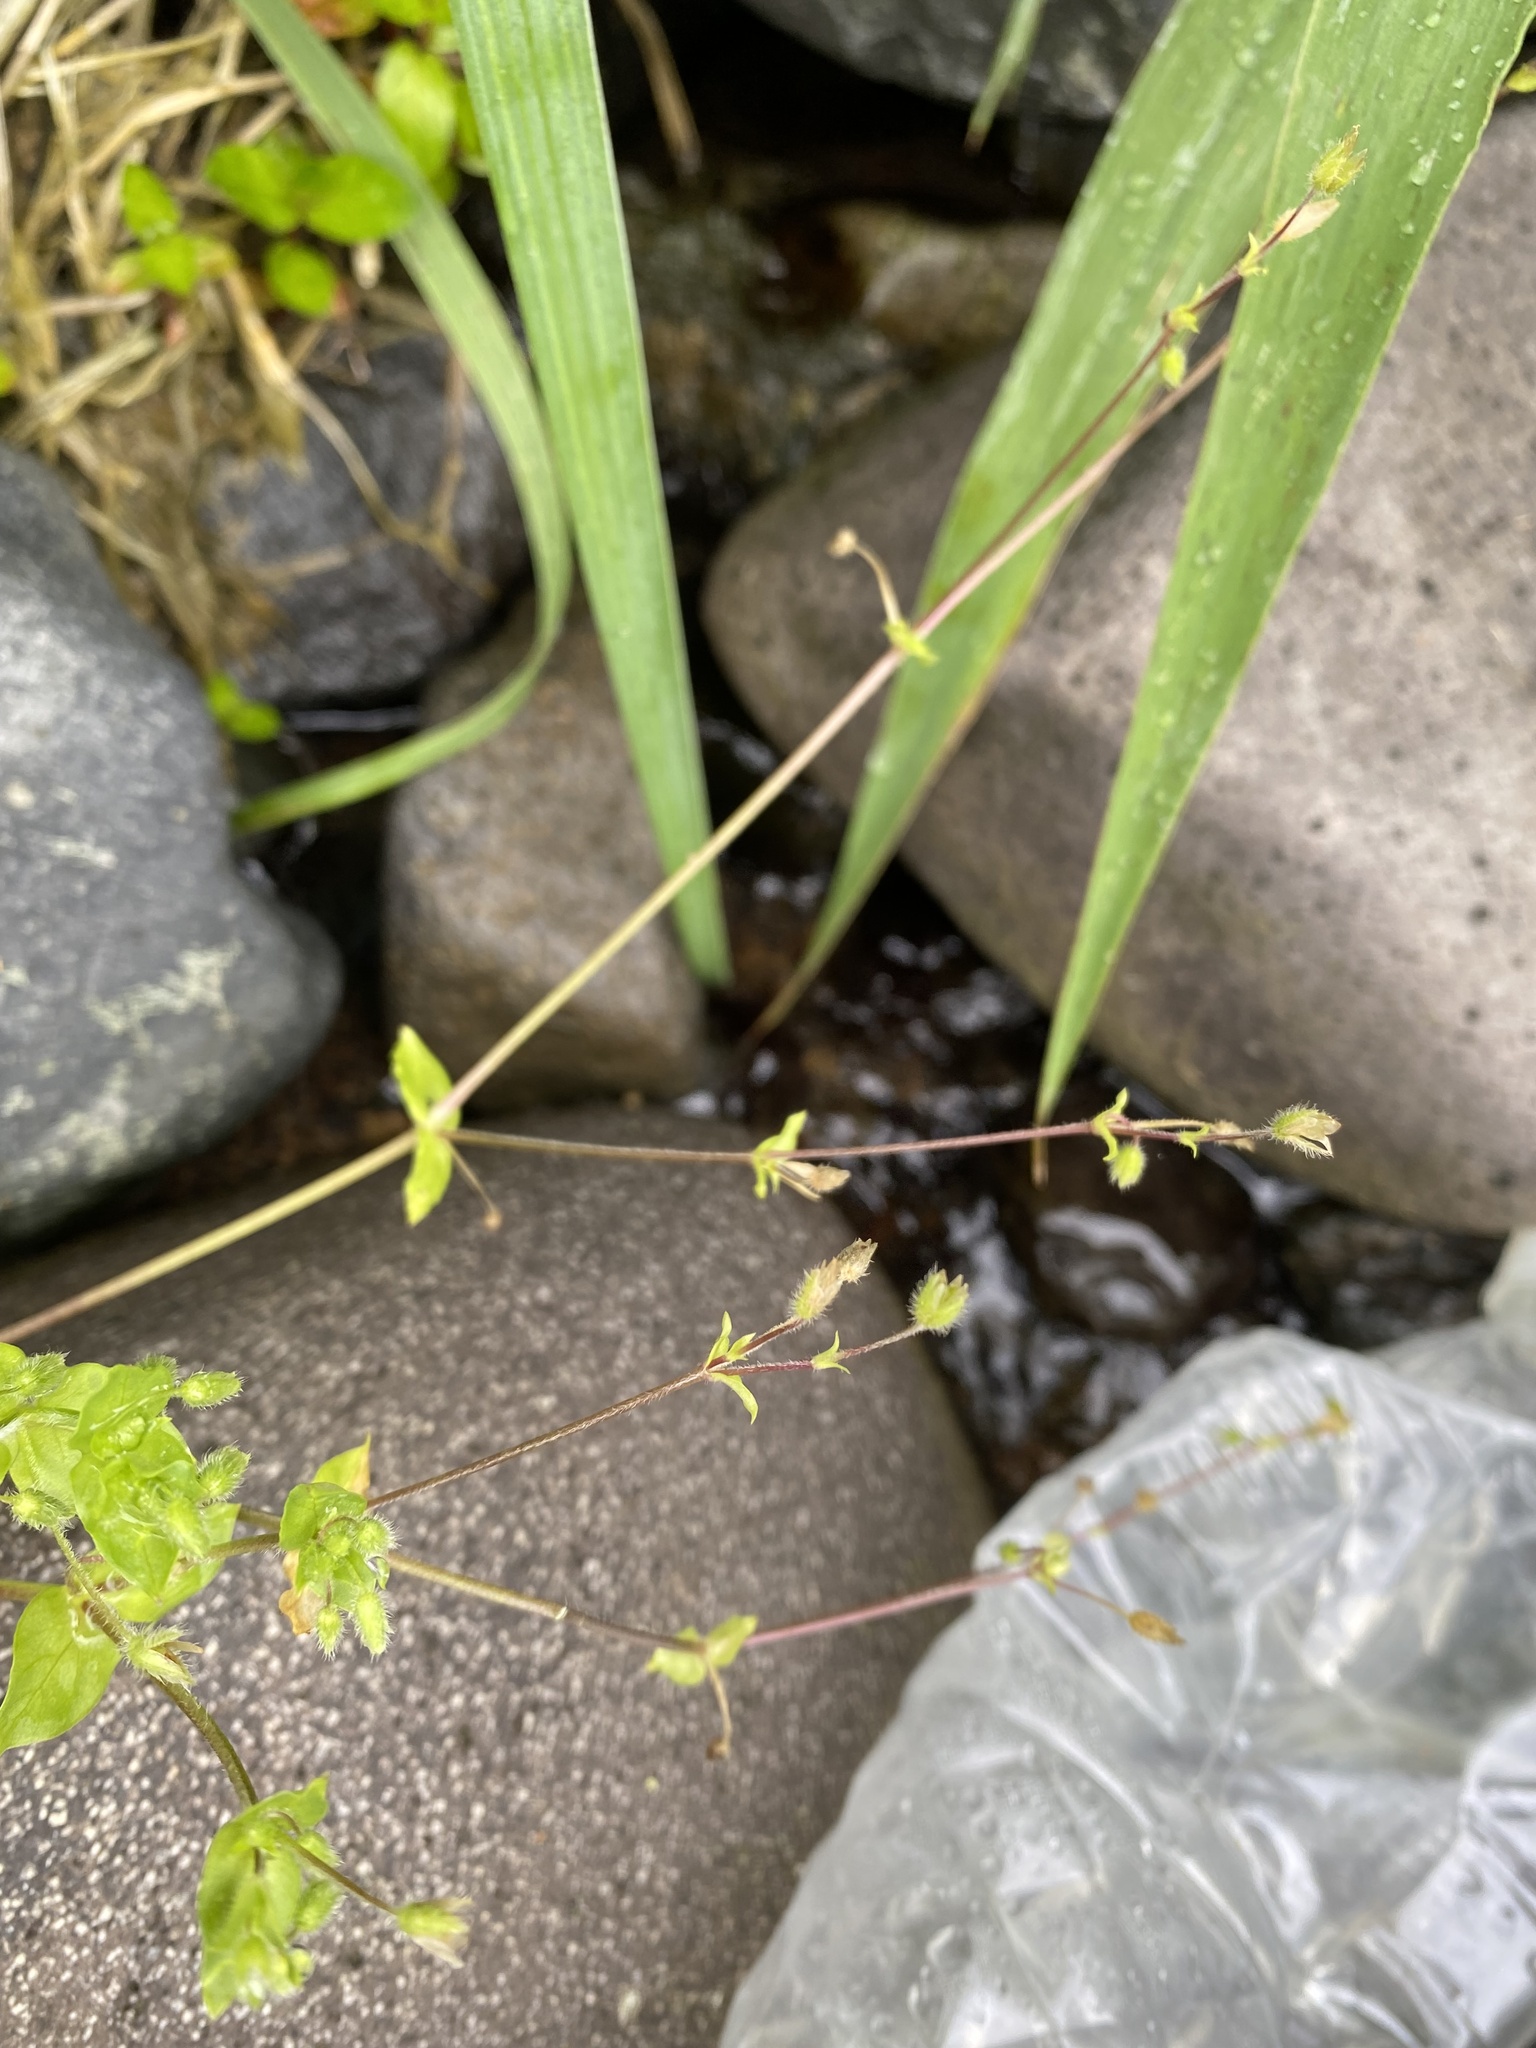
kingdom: Plantae
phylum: Tracheophyta
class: Magnoliopsida
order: Caryophyllales
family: Caryophyllaceae
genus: Stellaria
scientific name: Stellaria media
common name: Common chickweed
